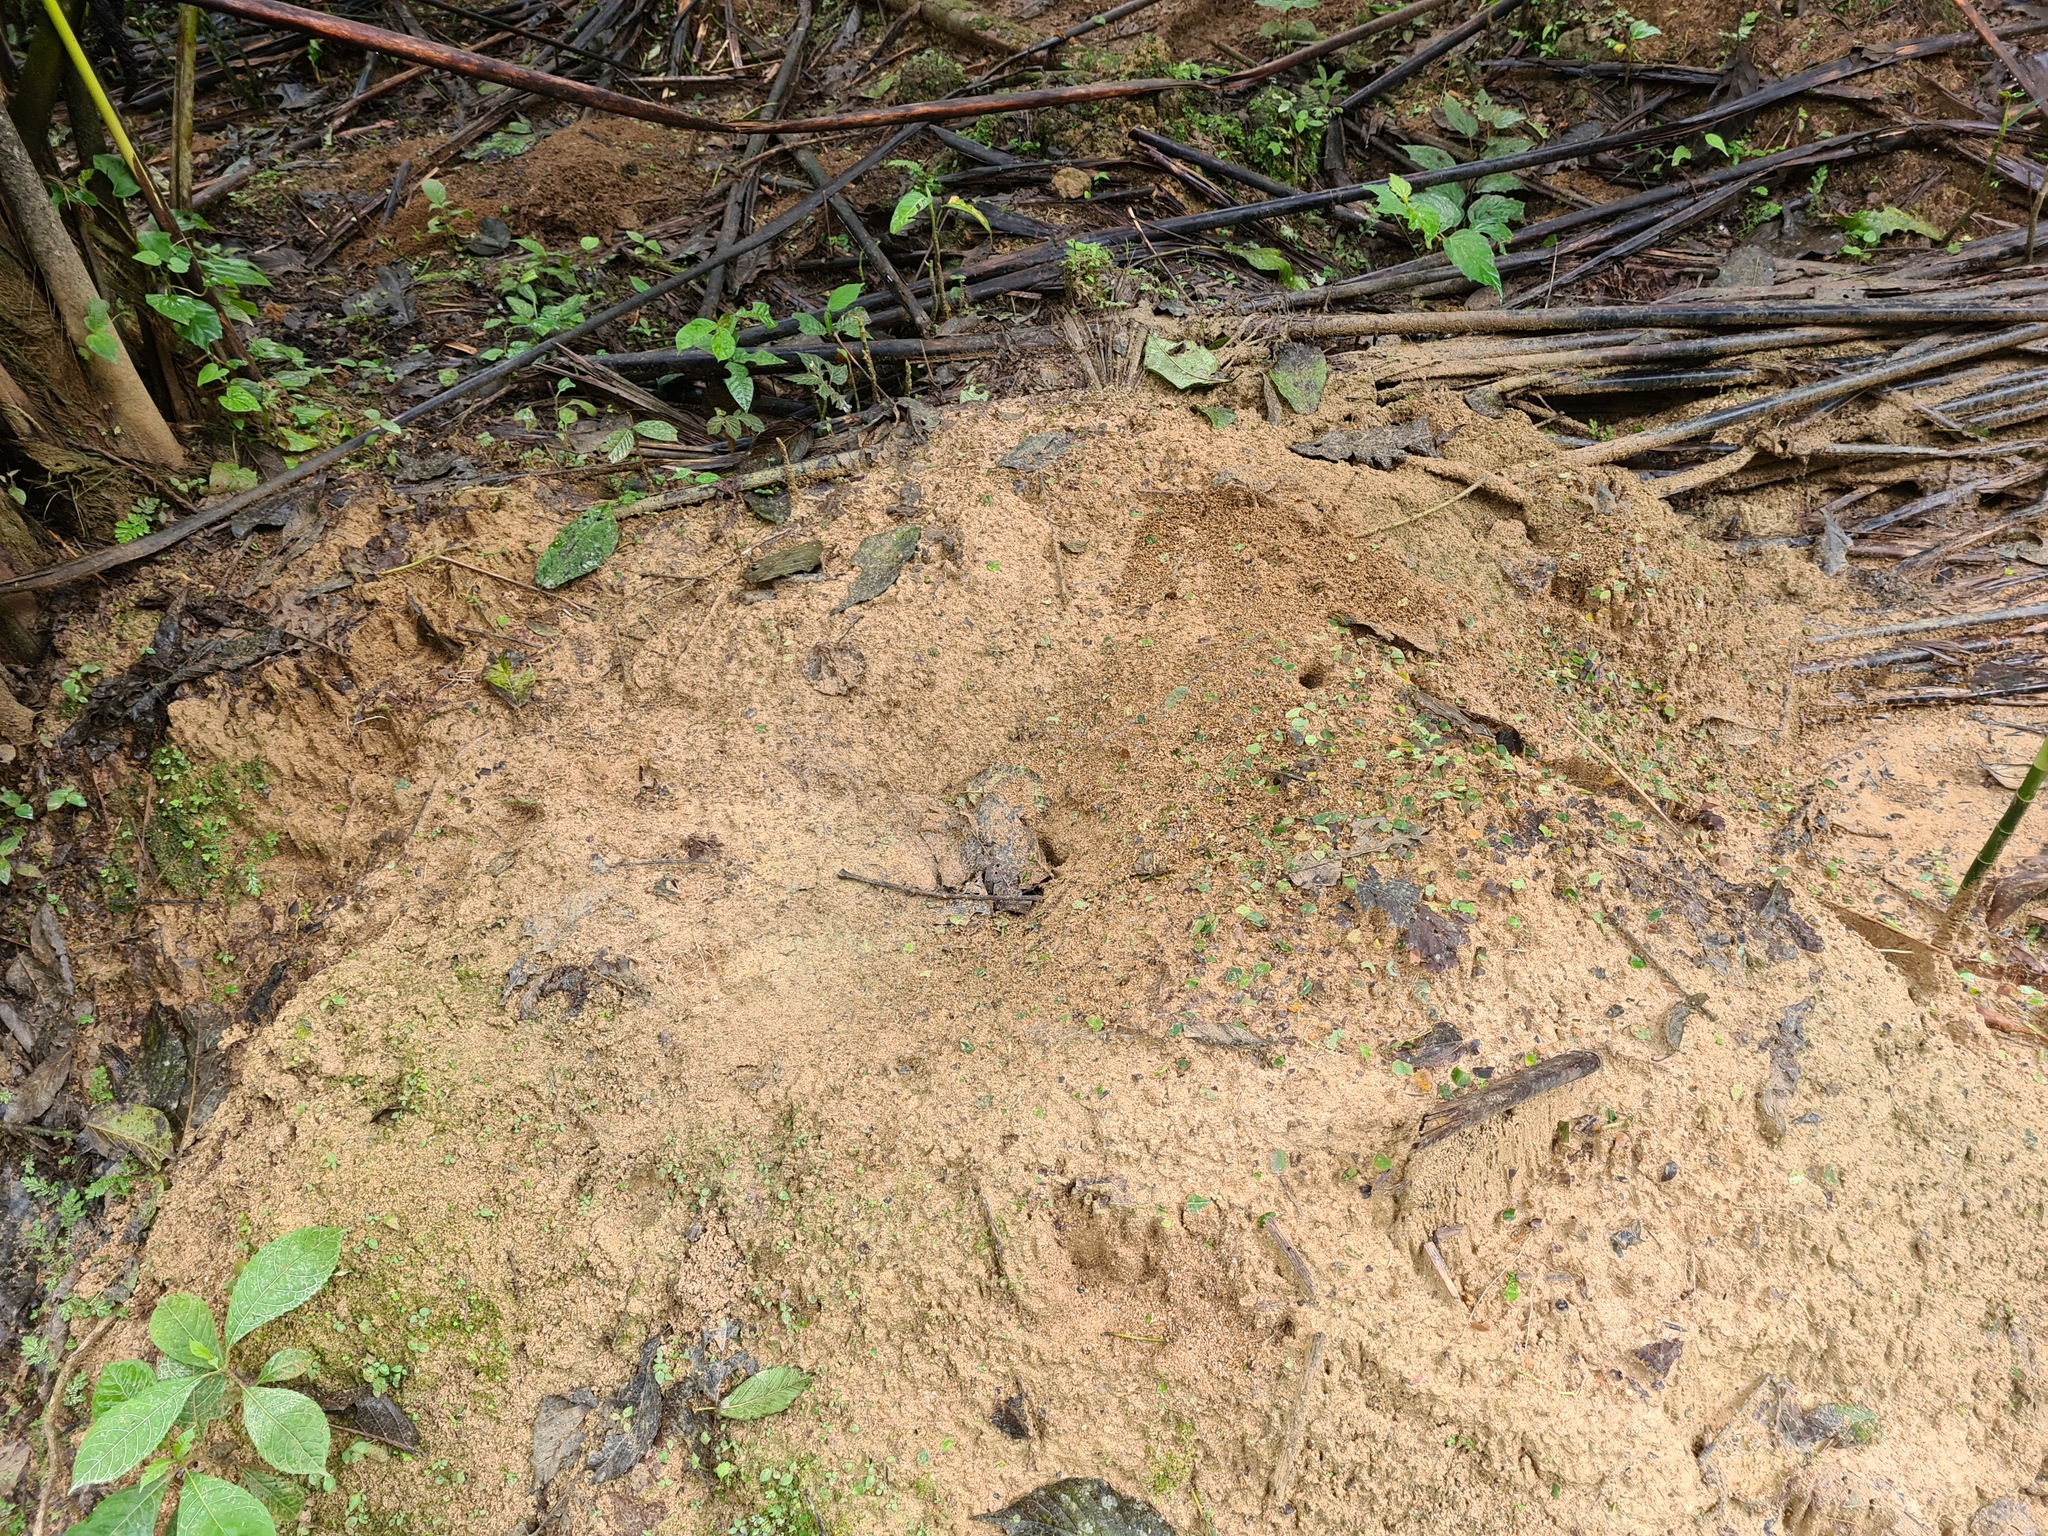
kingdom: Animalia
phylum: Arthropoda
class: Insecta
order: Hymenoptera
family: Formicidae
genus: Atta
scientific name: Atta
